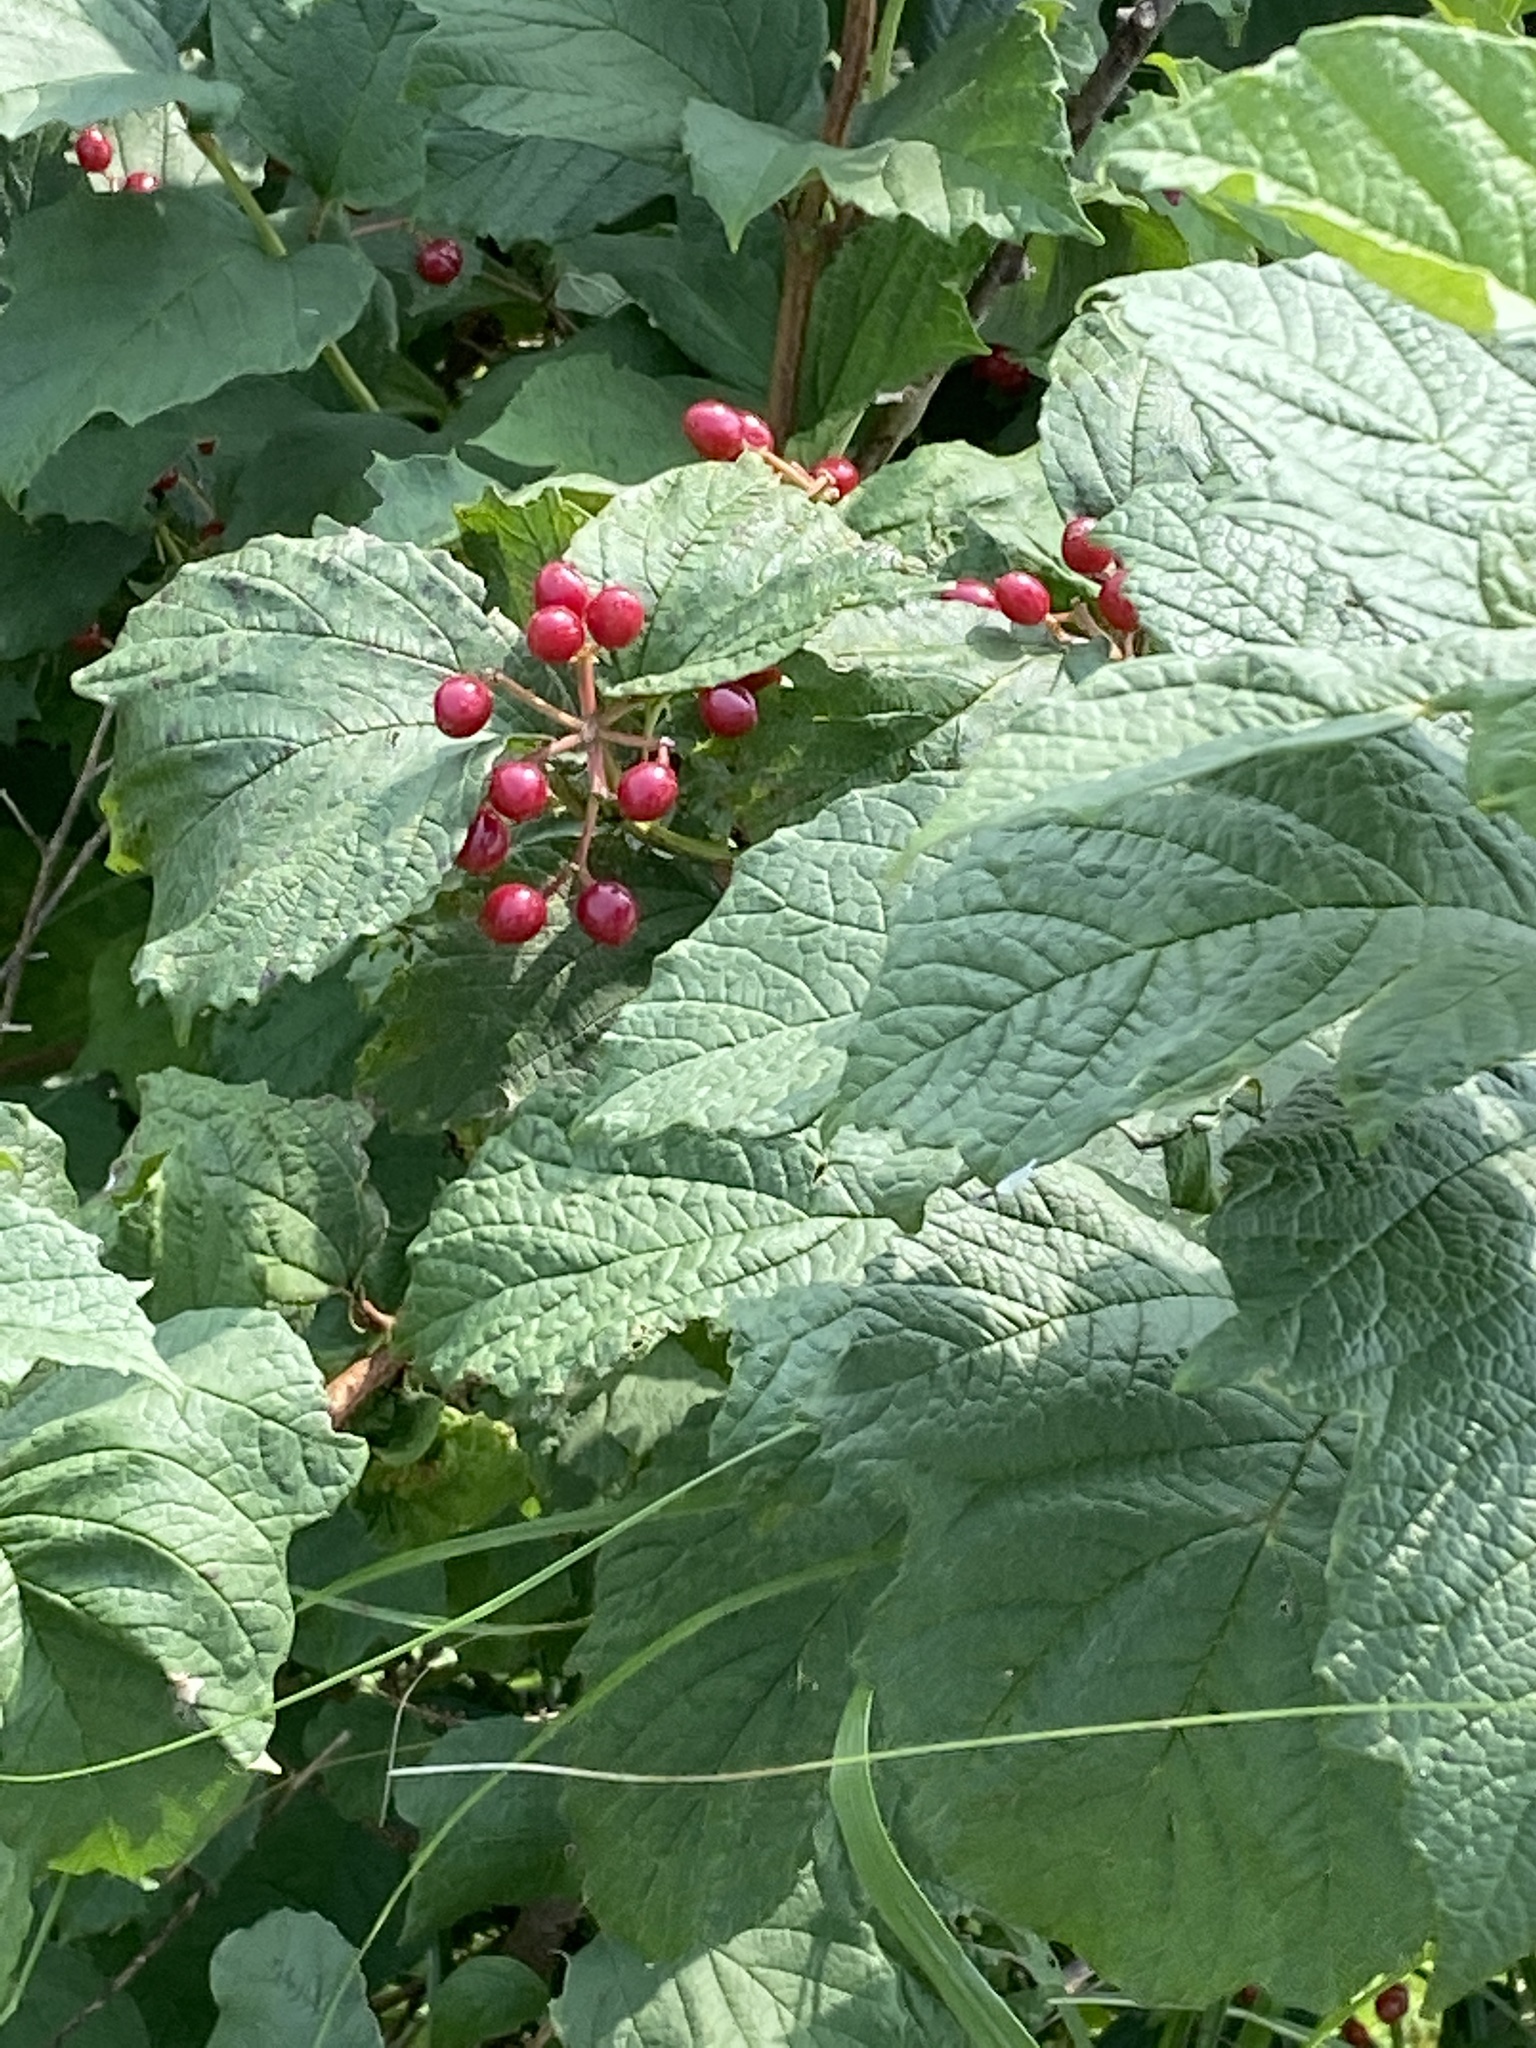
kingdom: Plantae
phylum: Tracheophyta
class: Magnoliopsida
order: Dipsacales
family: Viburnaceae
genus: Viburnum
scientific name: Viburnum opulus
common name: Guelder-rose
